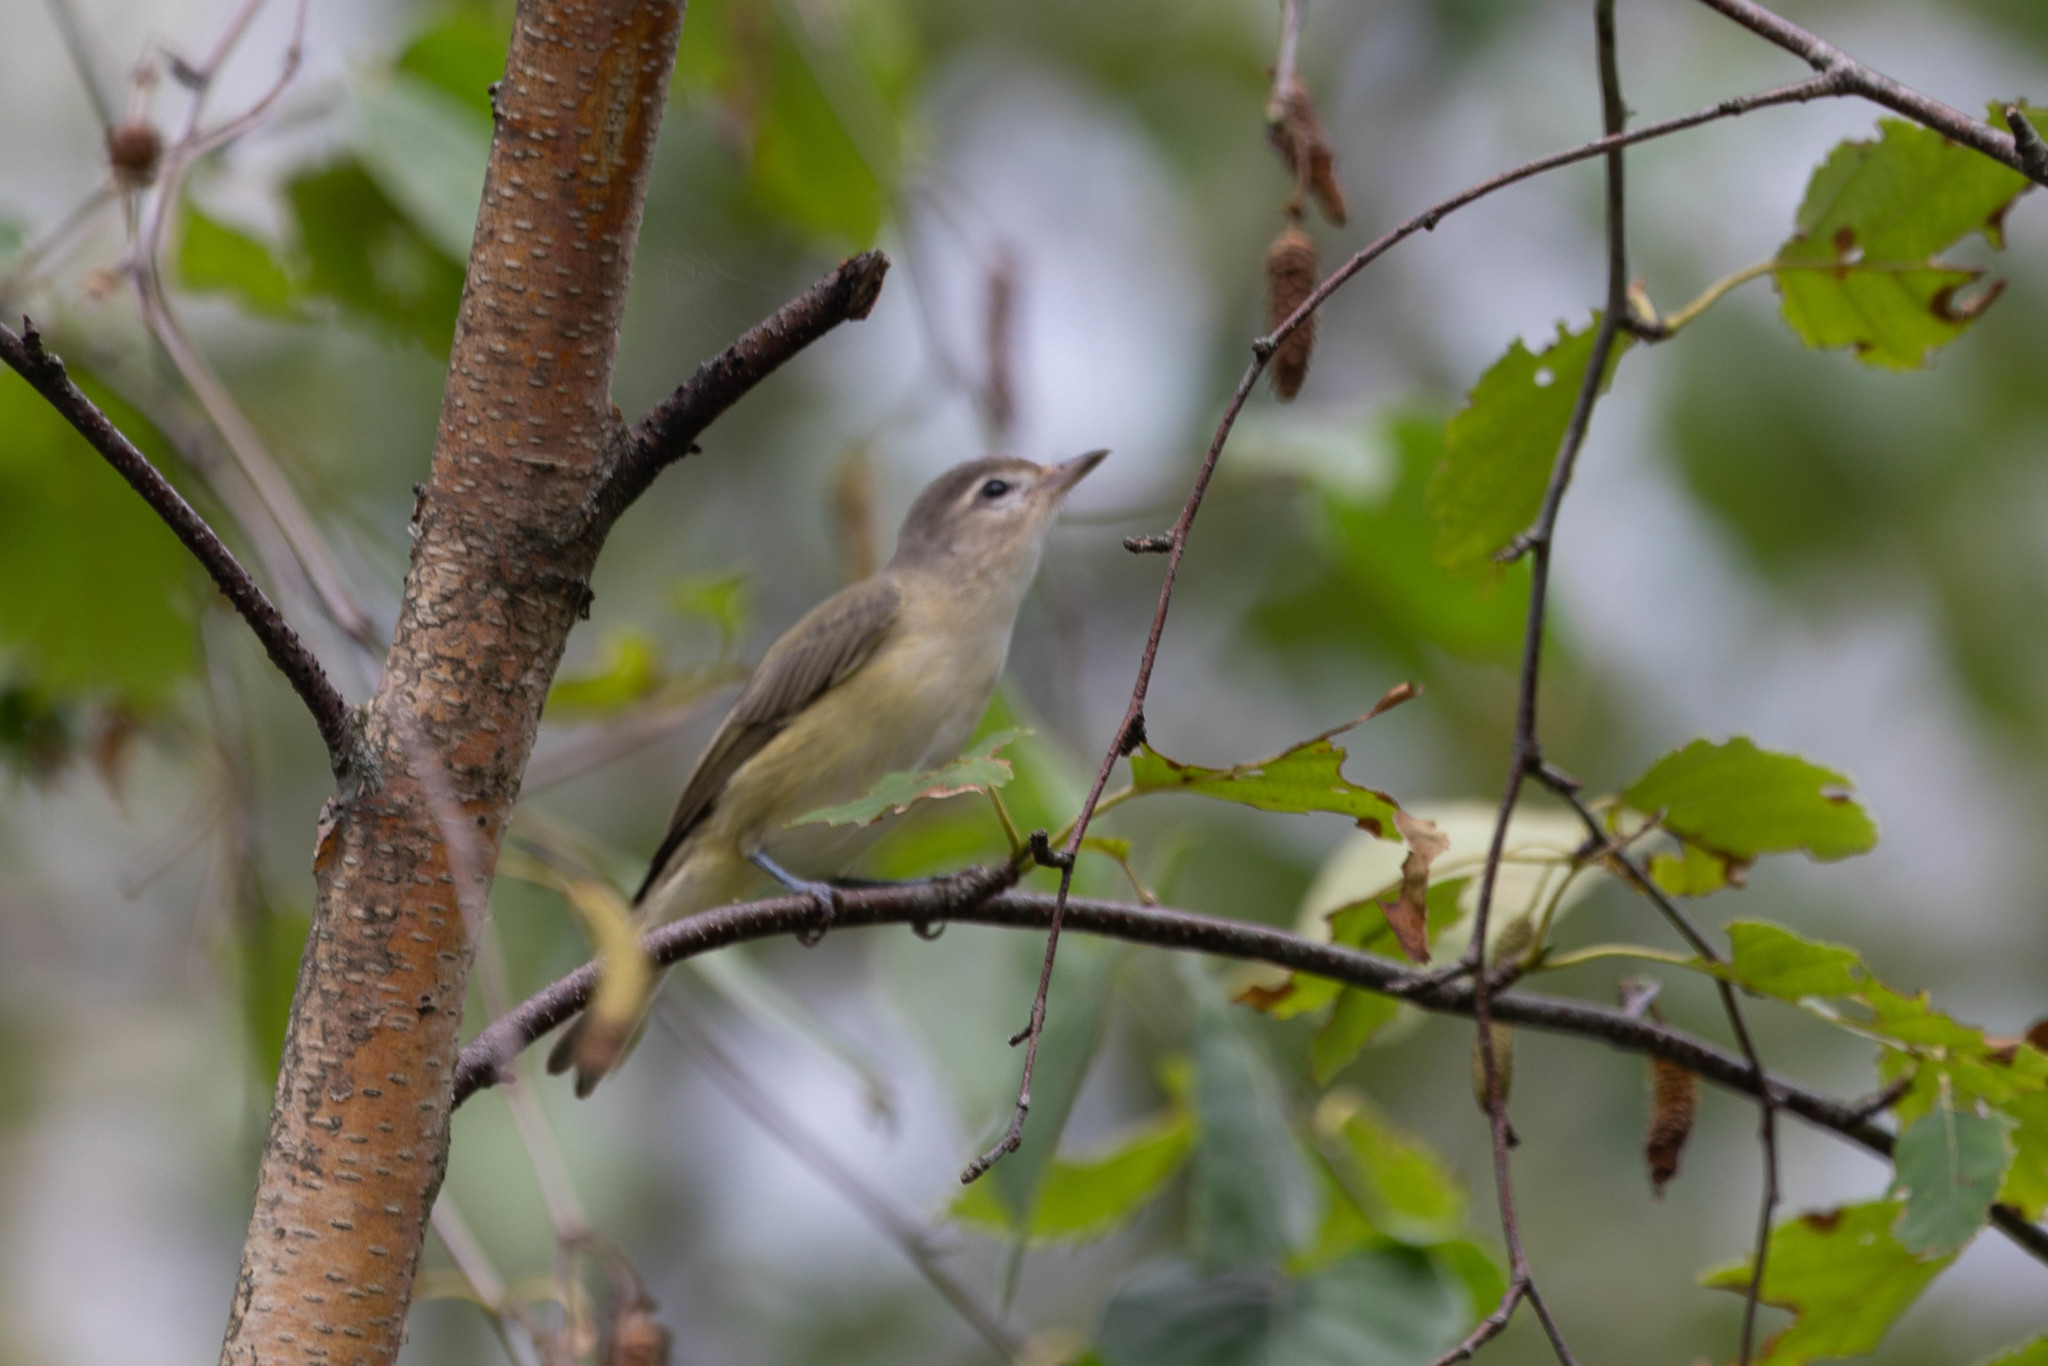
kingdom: Animalia
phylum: Chordata
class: Aves
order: Passeriformes
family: Vireonidae
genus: Vireo
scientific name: Vireo gilvus
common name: Warbling vireo
